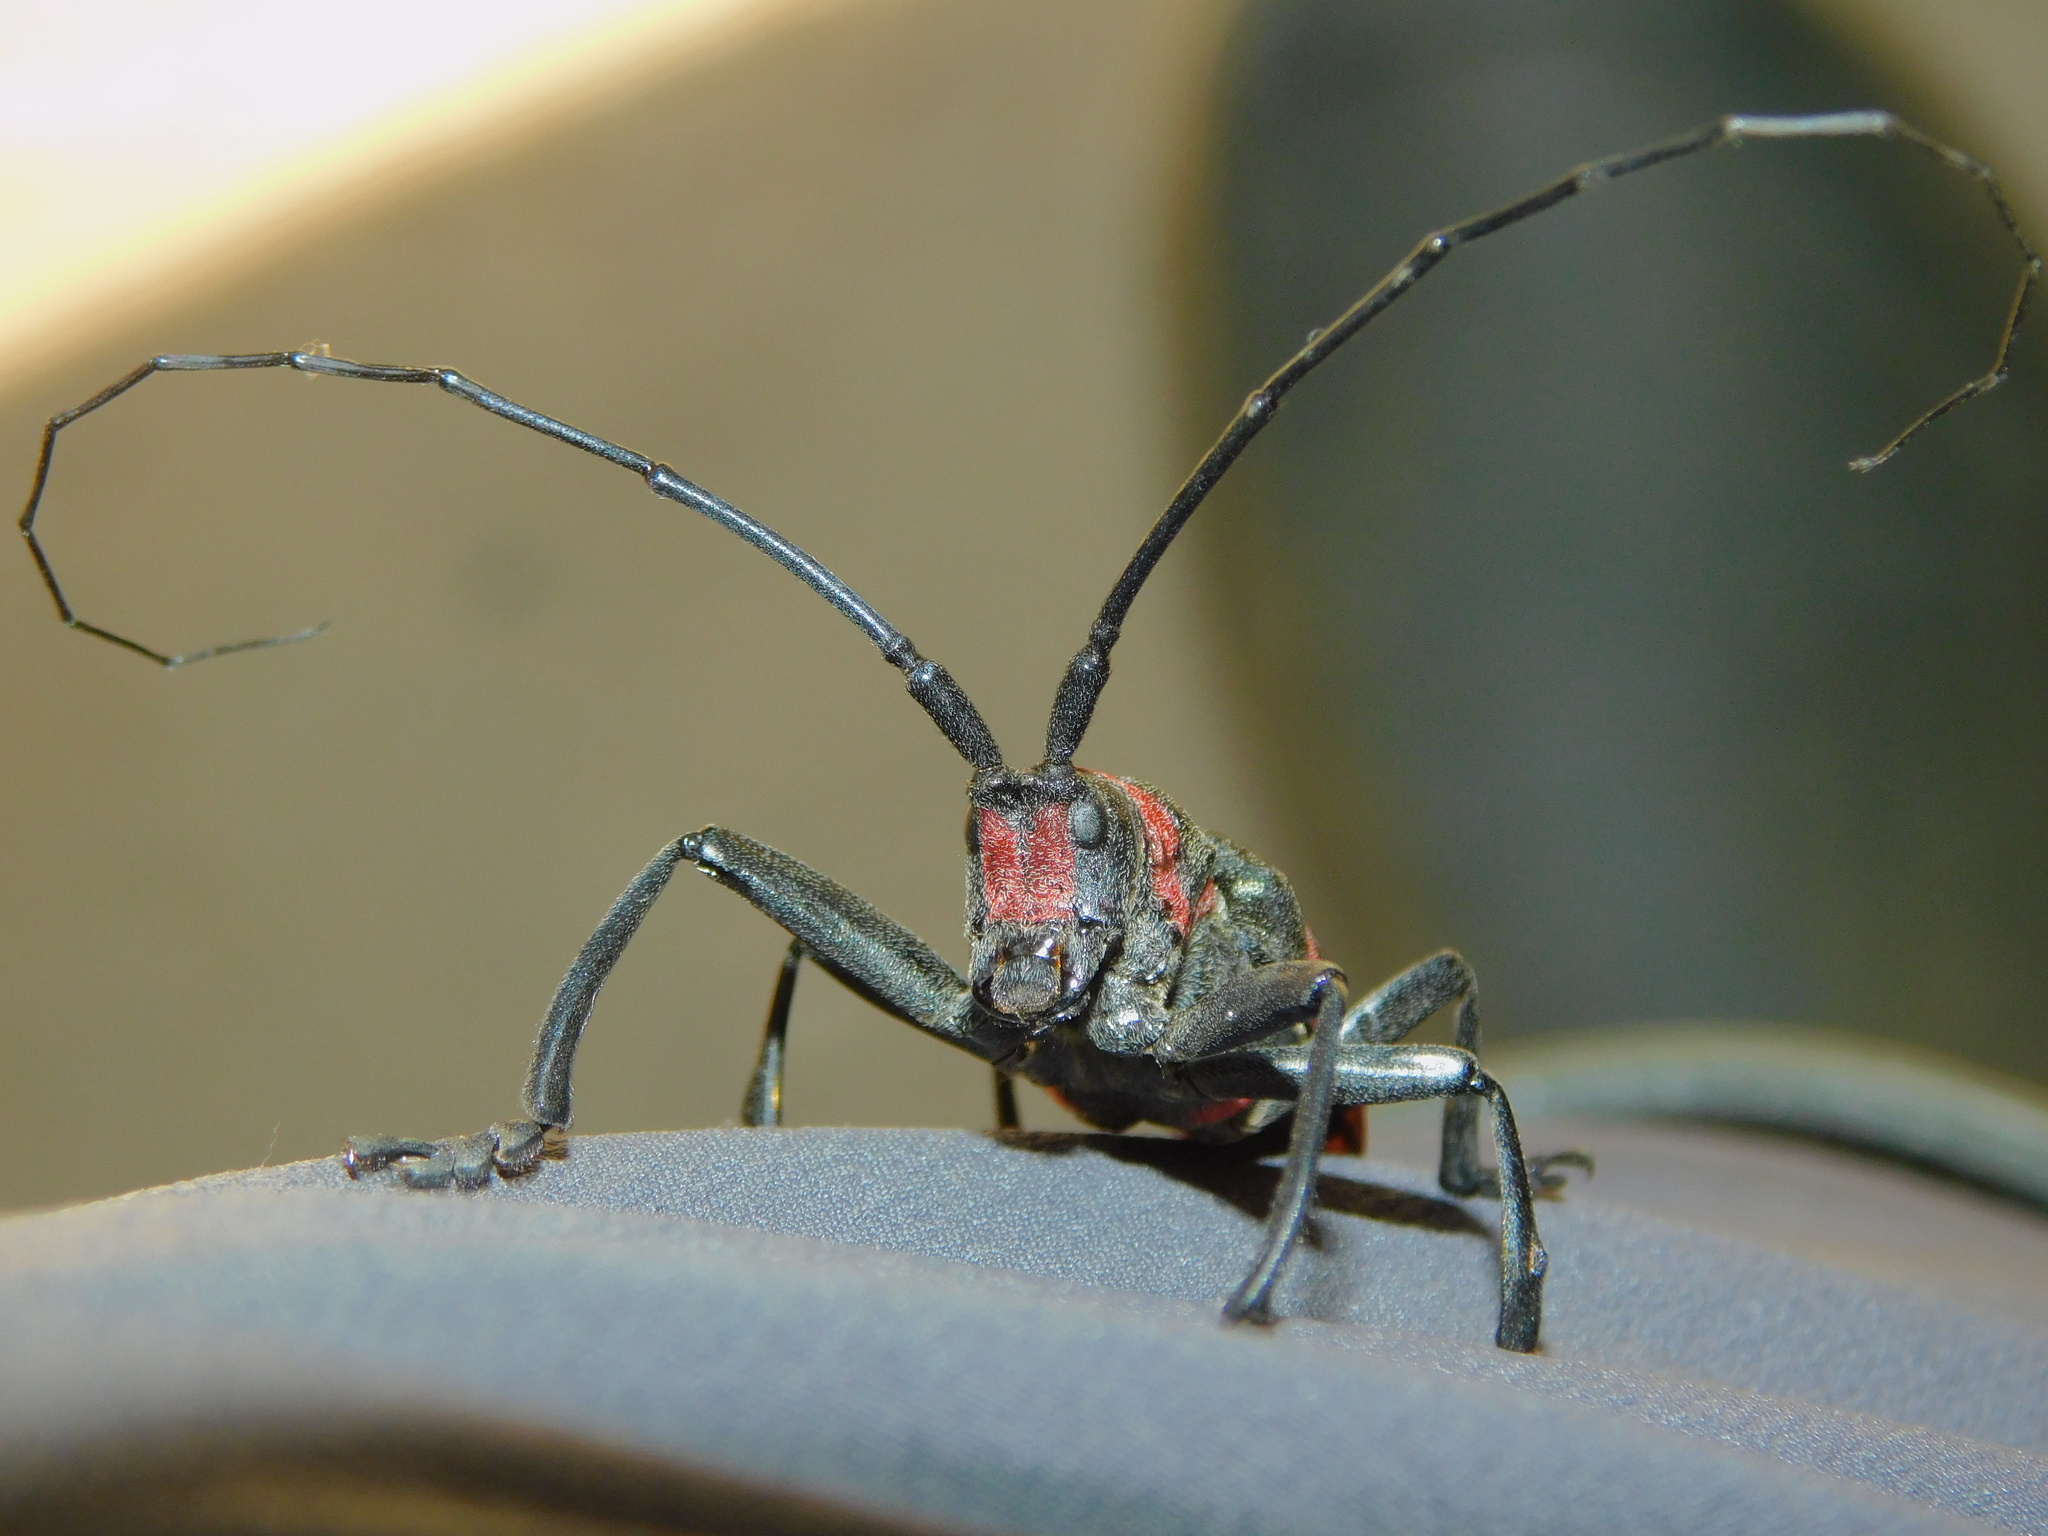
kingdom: Animalia
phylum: Arthropoda
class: Insecta
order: Coleoptera
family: Cerambycidae
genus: Ceroplesis
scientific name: Ceroplesis calabarica
